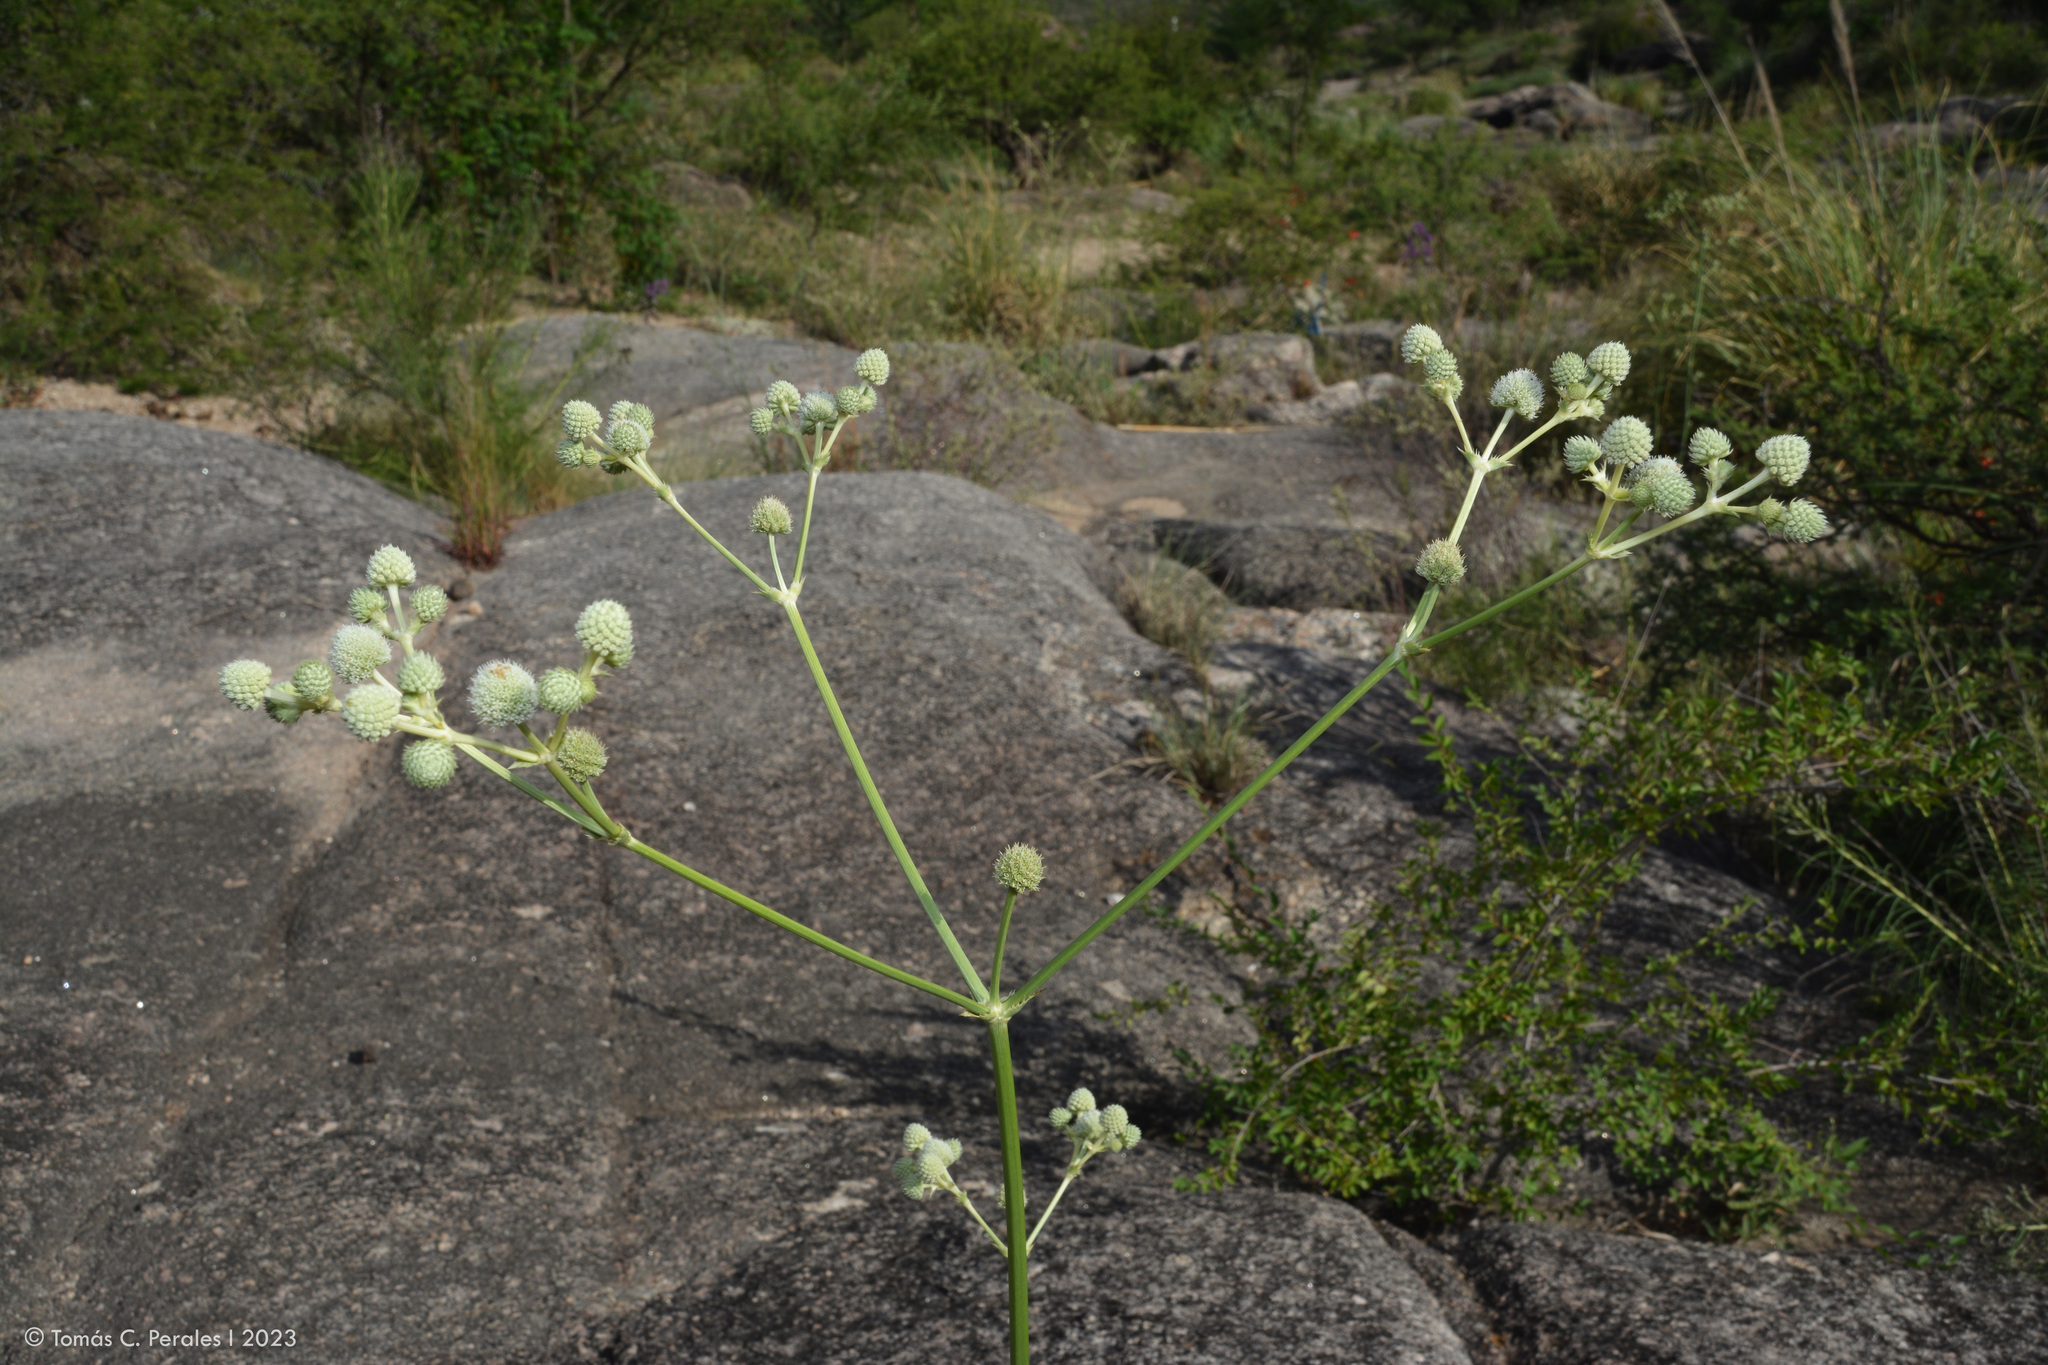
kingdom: Plantae
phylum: Tracheophyta
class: Magnoliopsida
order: Apiales
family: Apiaceae
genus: Eryngium
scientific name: Eryngium elegans
